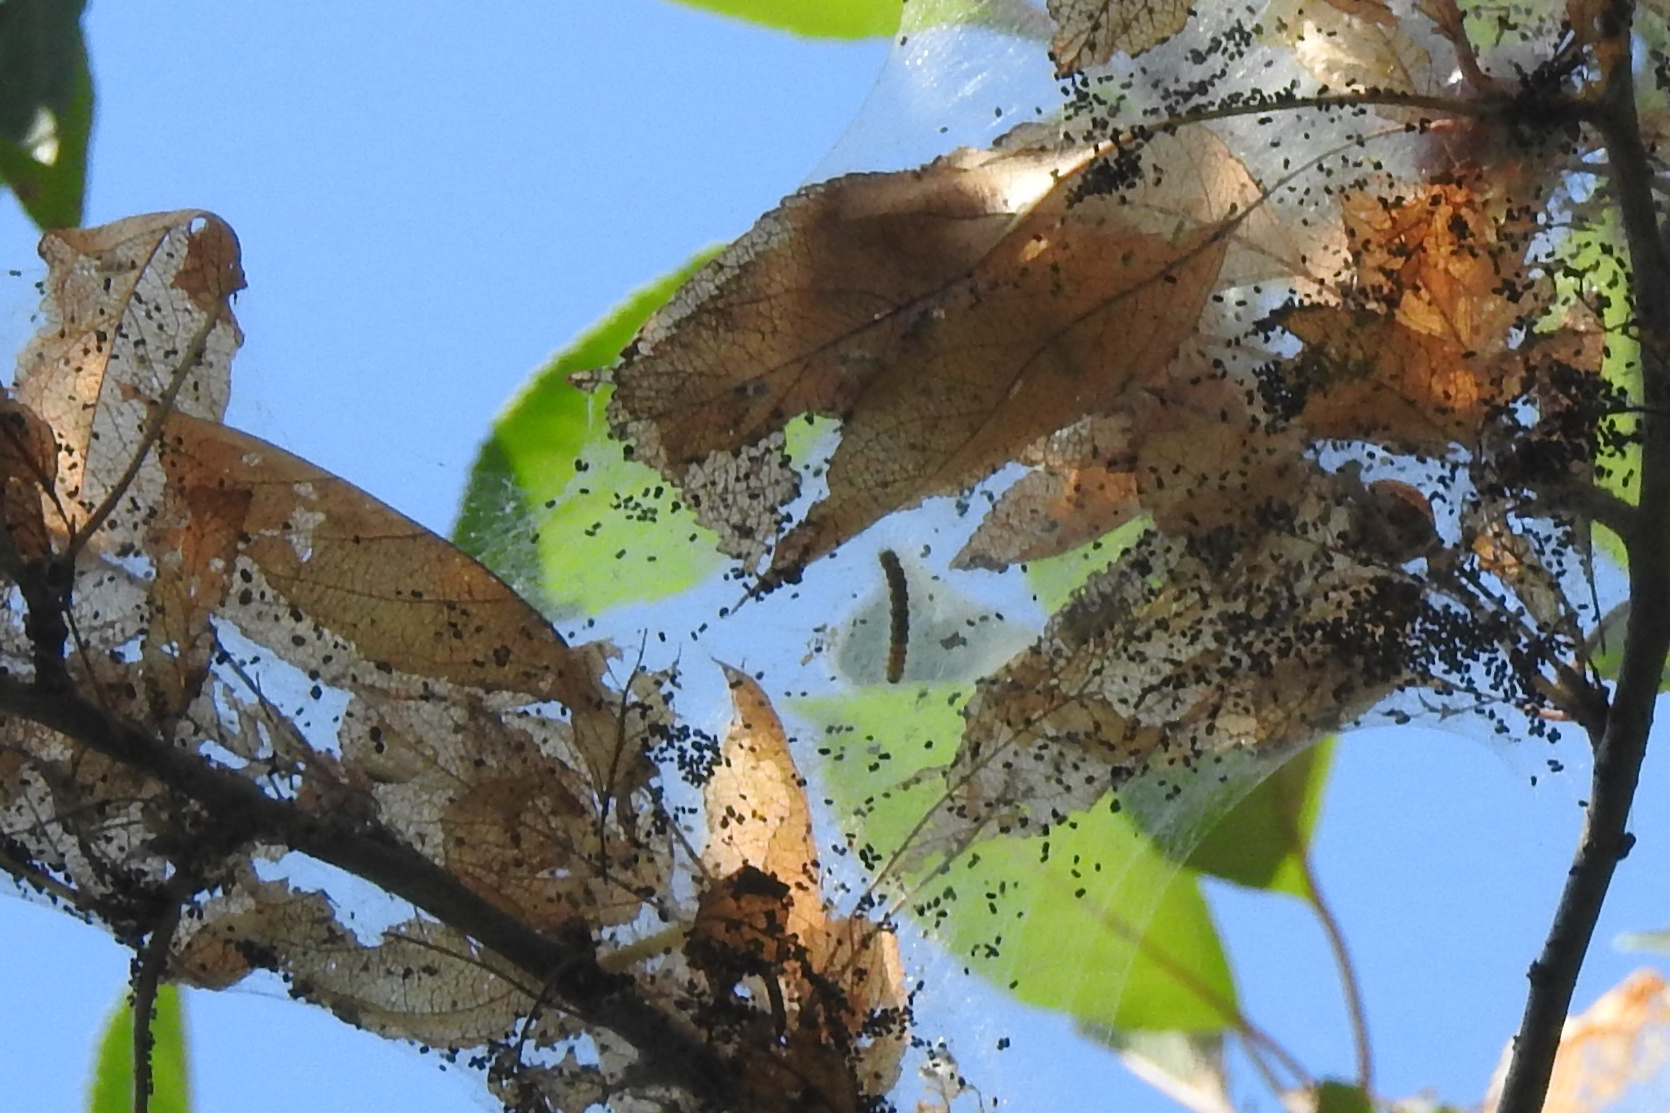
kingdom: Animalia
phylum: Arthropoda
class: Insecta
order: Lepidoptera
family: Erebidae
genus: Hyphantria
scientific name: Hyphantria cunea
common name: American white moth
